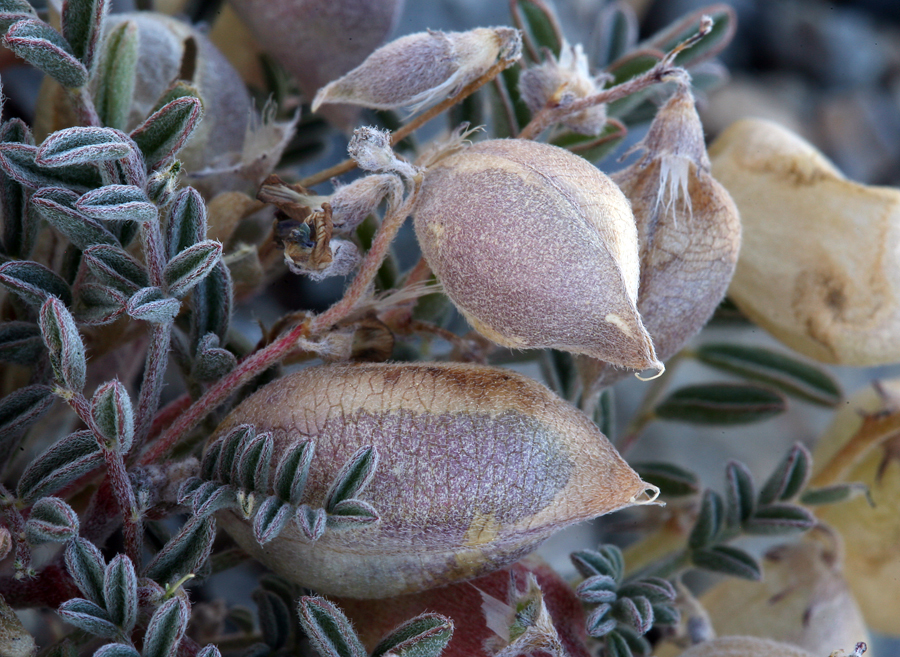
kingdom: Plantae
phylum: Tracheophyta
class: Magnoliopsida
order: Fabales
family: Fabaceae
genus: Astragalus
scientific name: Astragalus gilmanii
